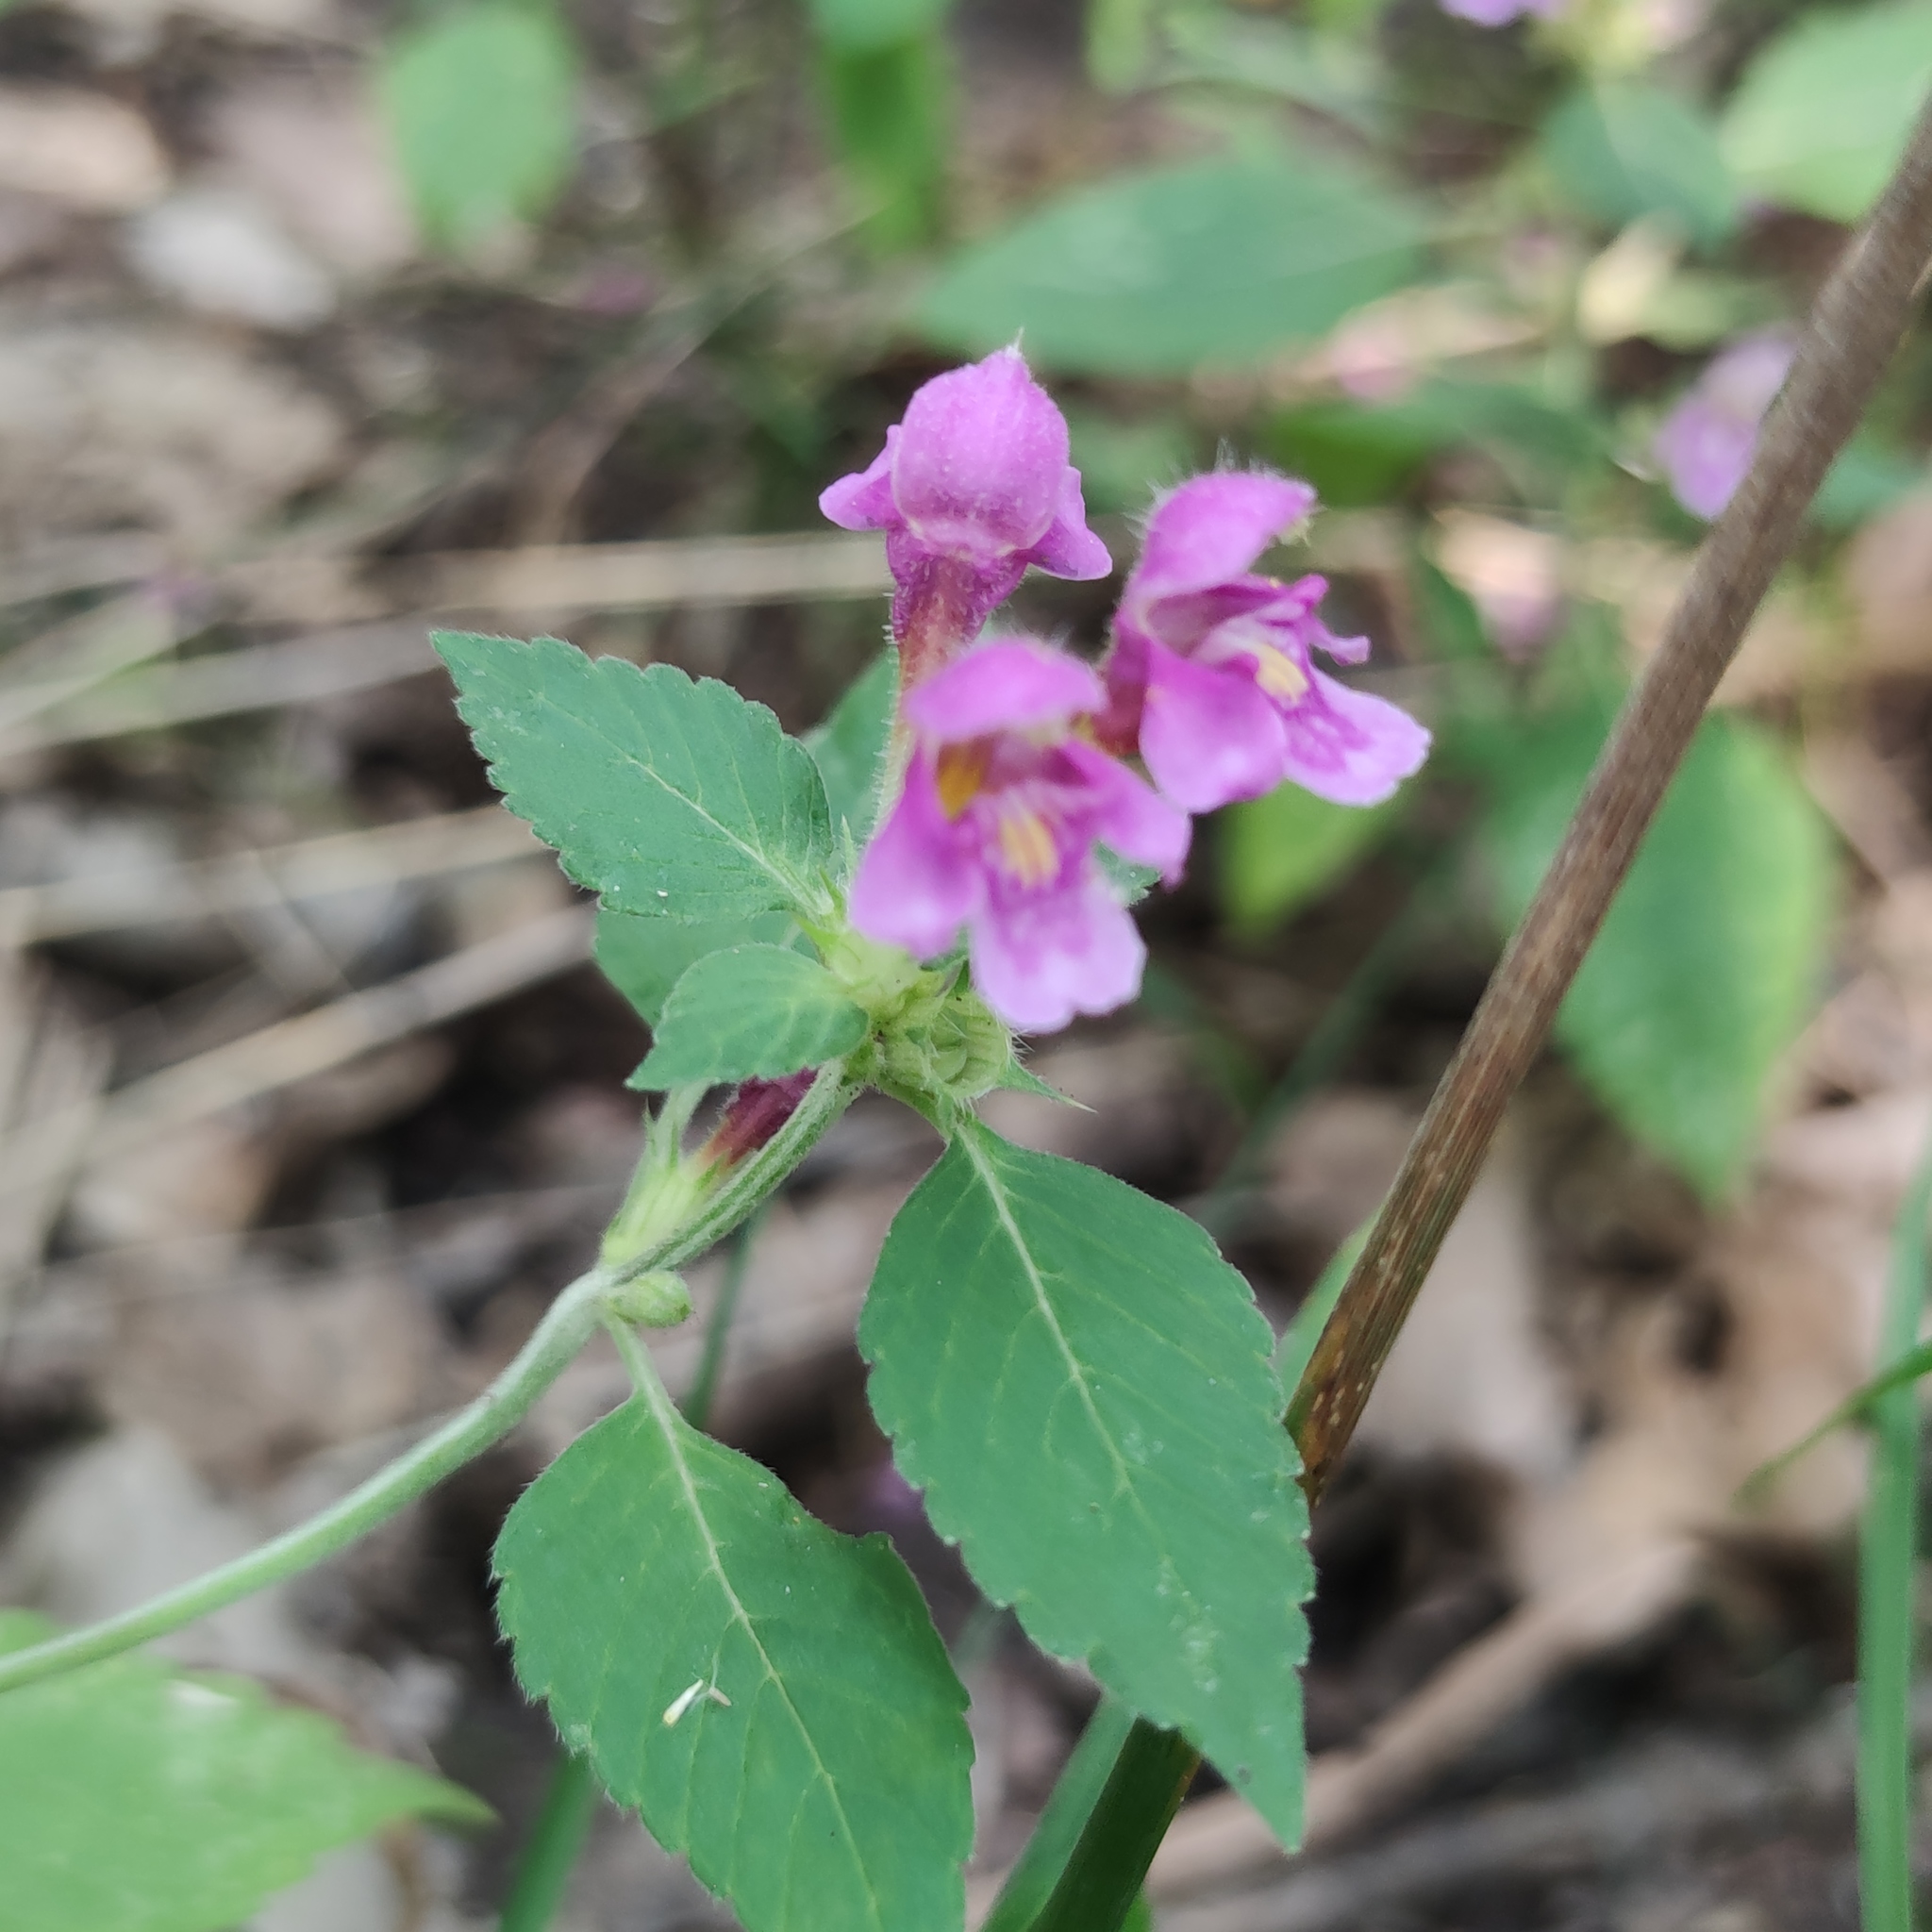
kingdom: Plantae
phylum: Tracheophyta
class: Magnoliopsida
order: Lamiales
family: Lamiaceae
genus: Galeopsis
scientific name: Galeopsis pubescens
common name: Downy hemp-nettle
